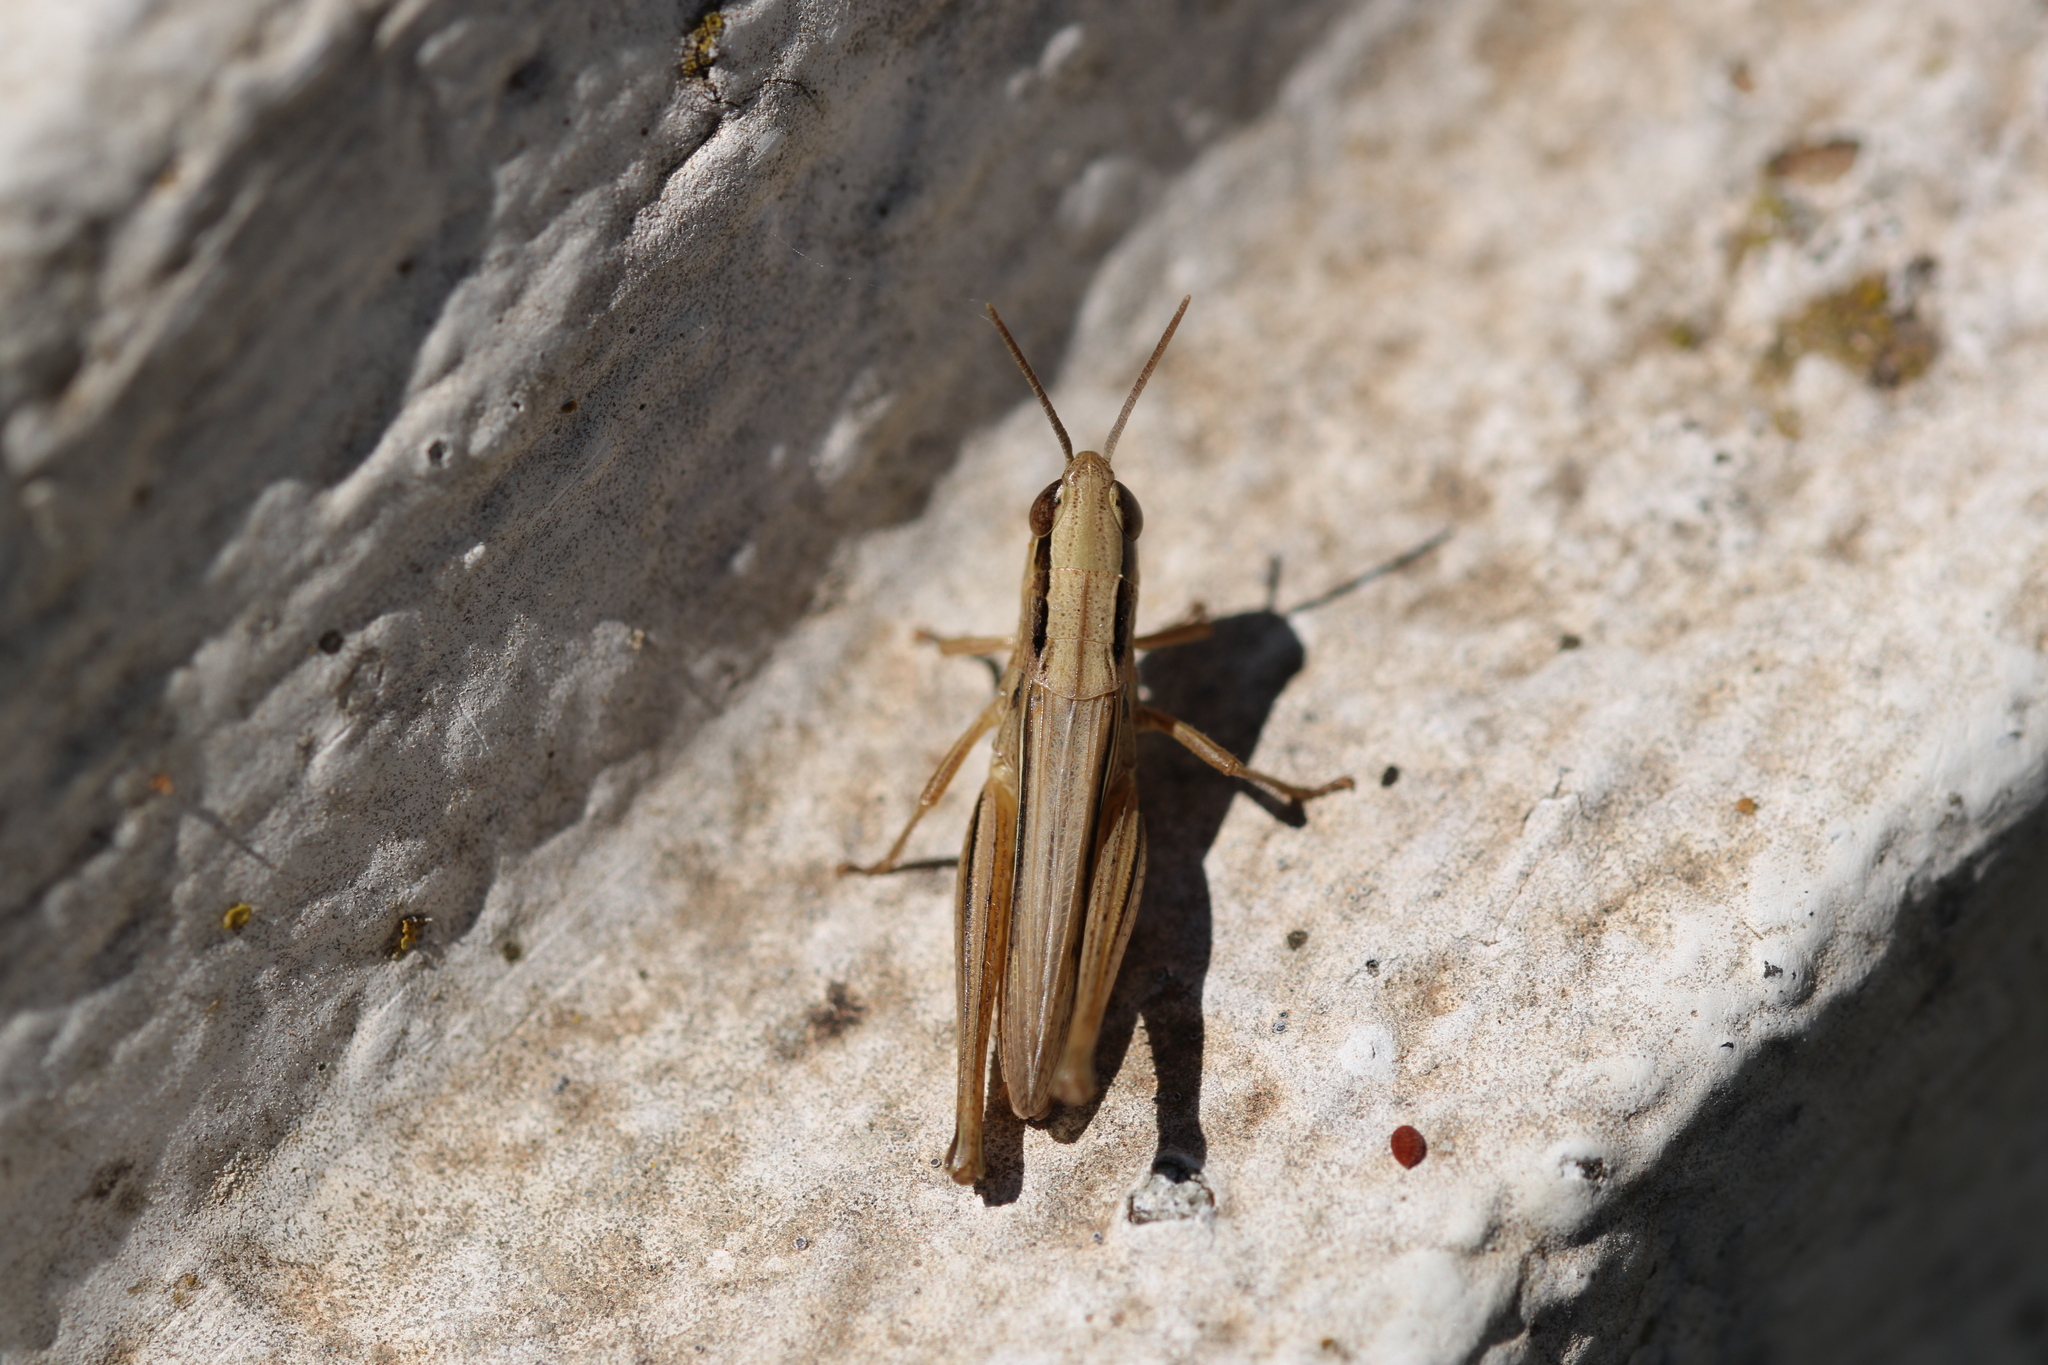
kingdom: Animalia
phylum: Arthropoda
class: Insecta
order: Orthoptera
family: Acrididae
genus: Euchorthippus
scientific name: Euchorthippus elegantulus
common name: Elegant straw grasshopper
